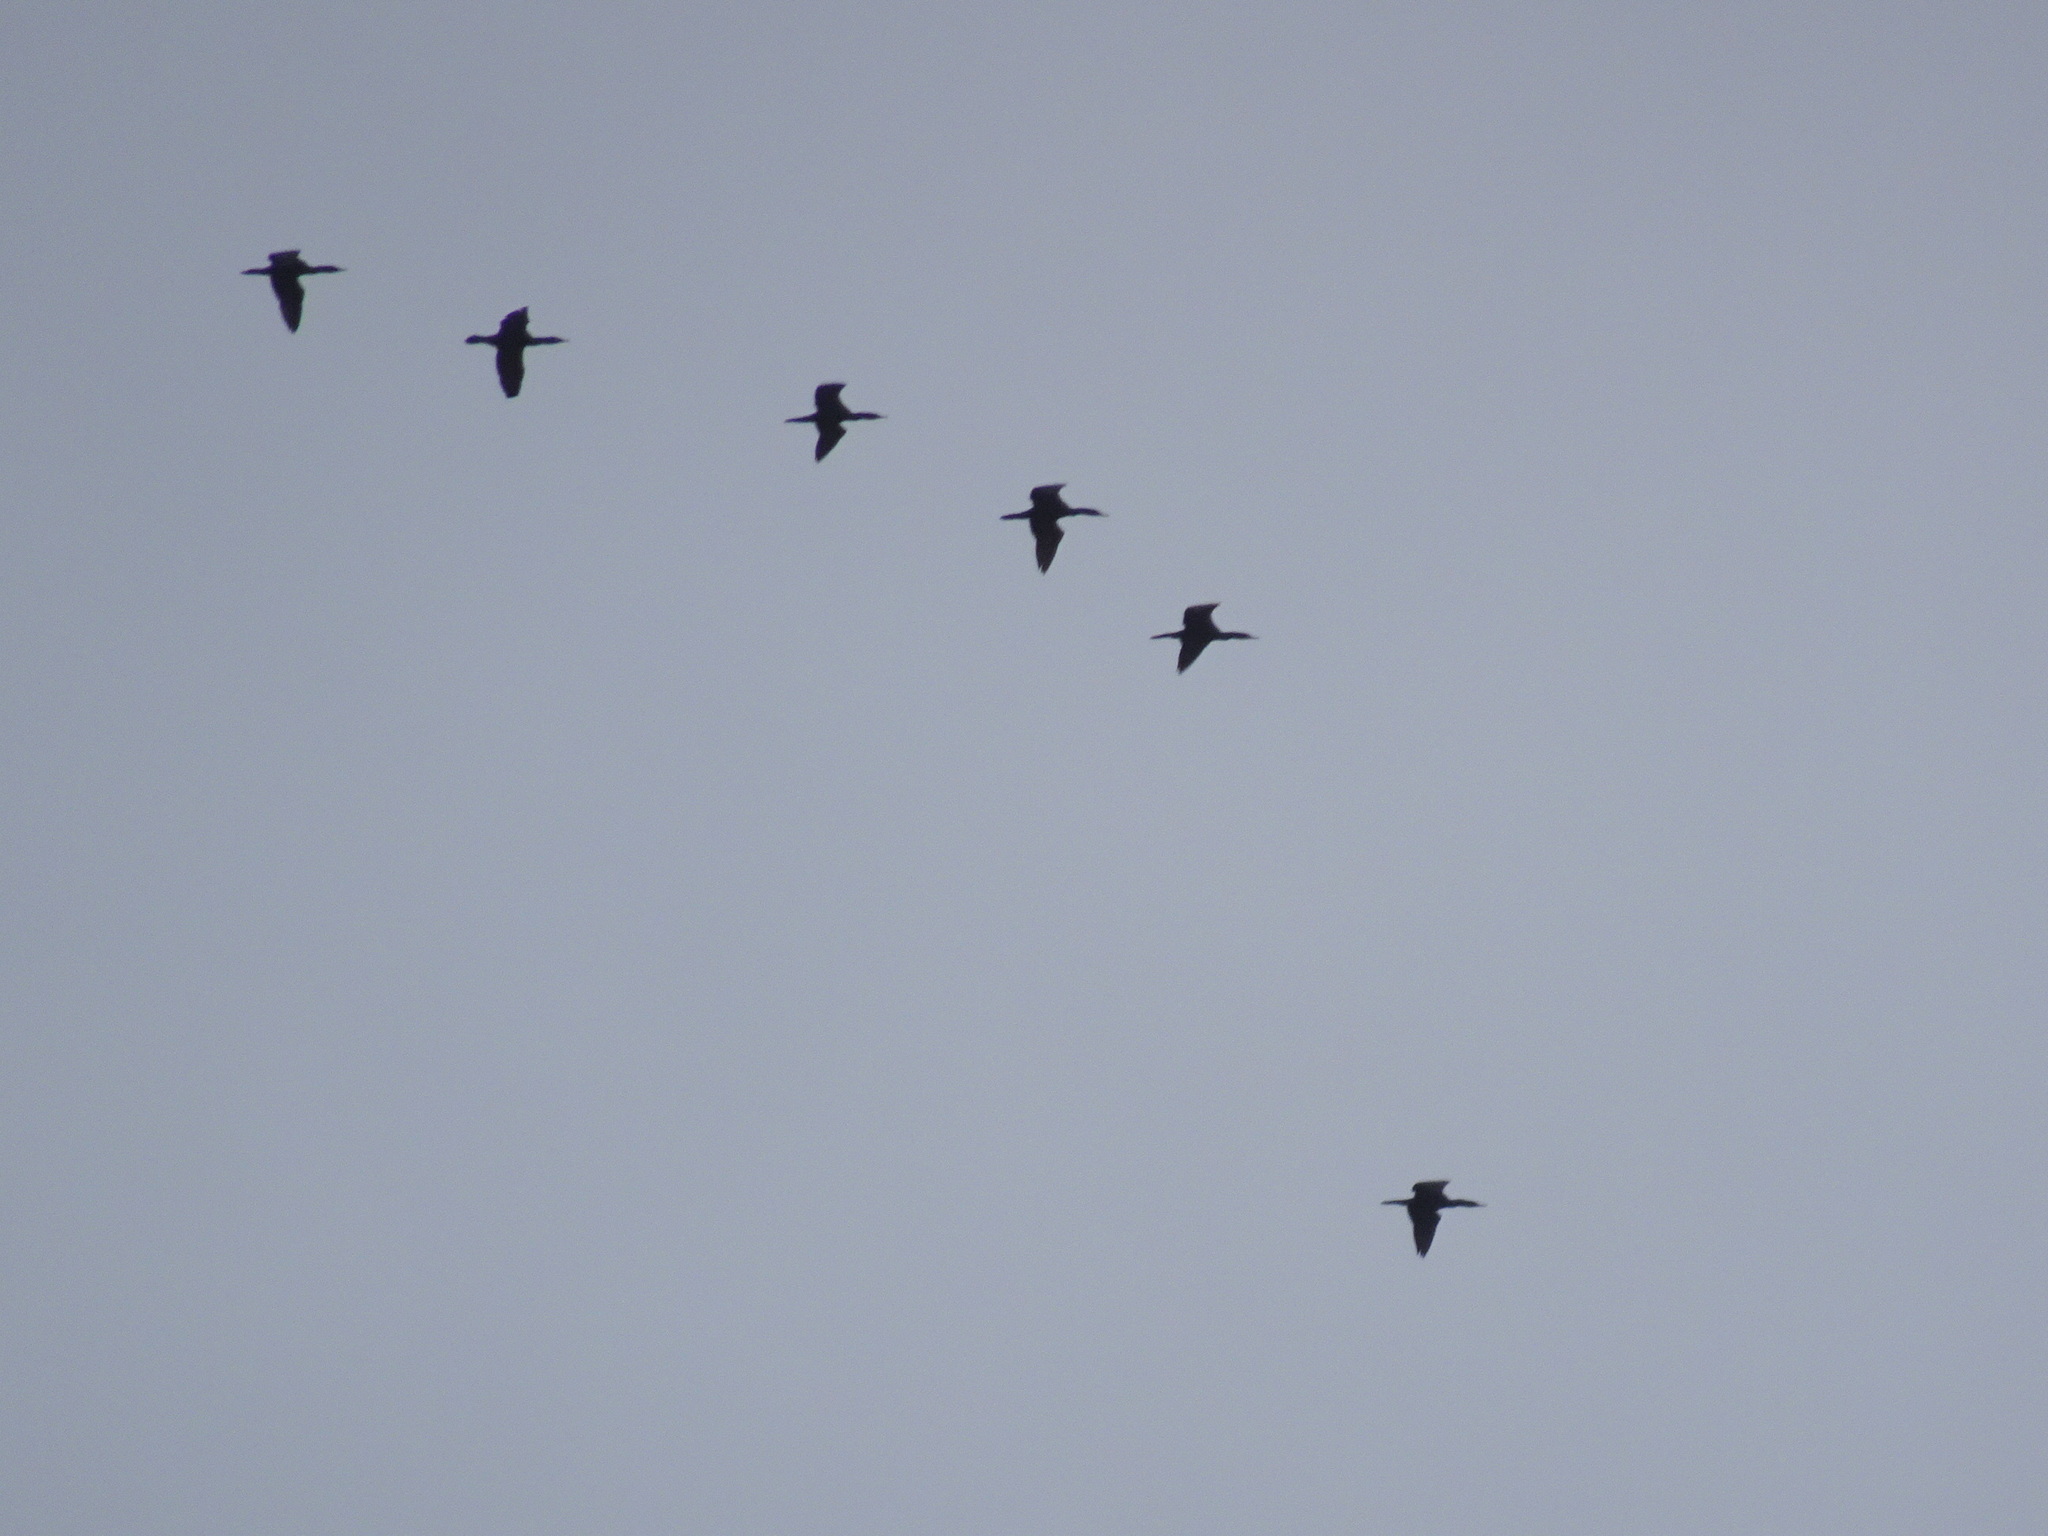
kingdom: Animalia
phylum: Chordata
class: Aves
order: Suliformes
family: Phalacrocoracidae
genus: Phalacrocorax
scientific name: Phalacrocorax auritus
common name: Double-crested cormorant
